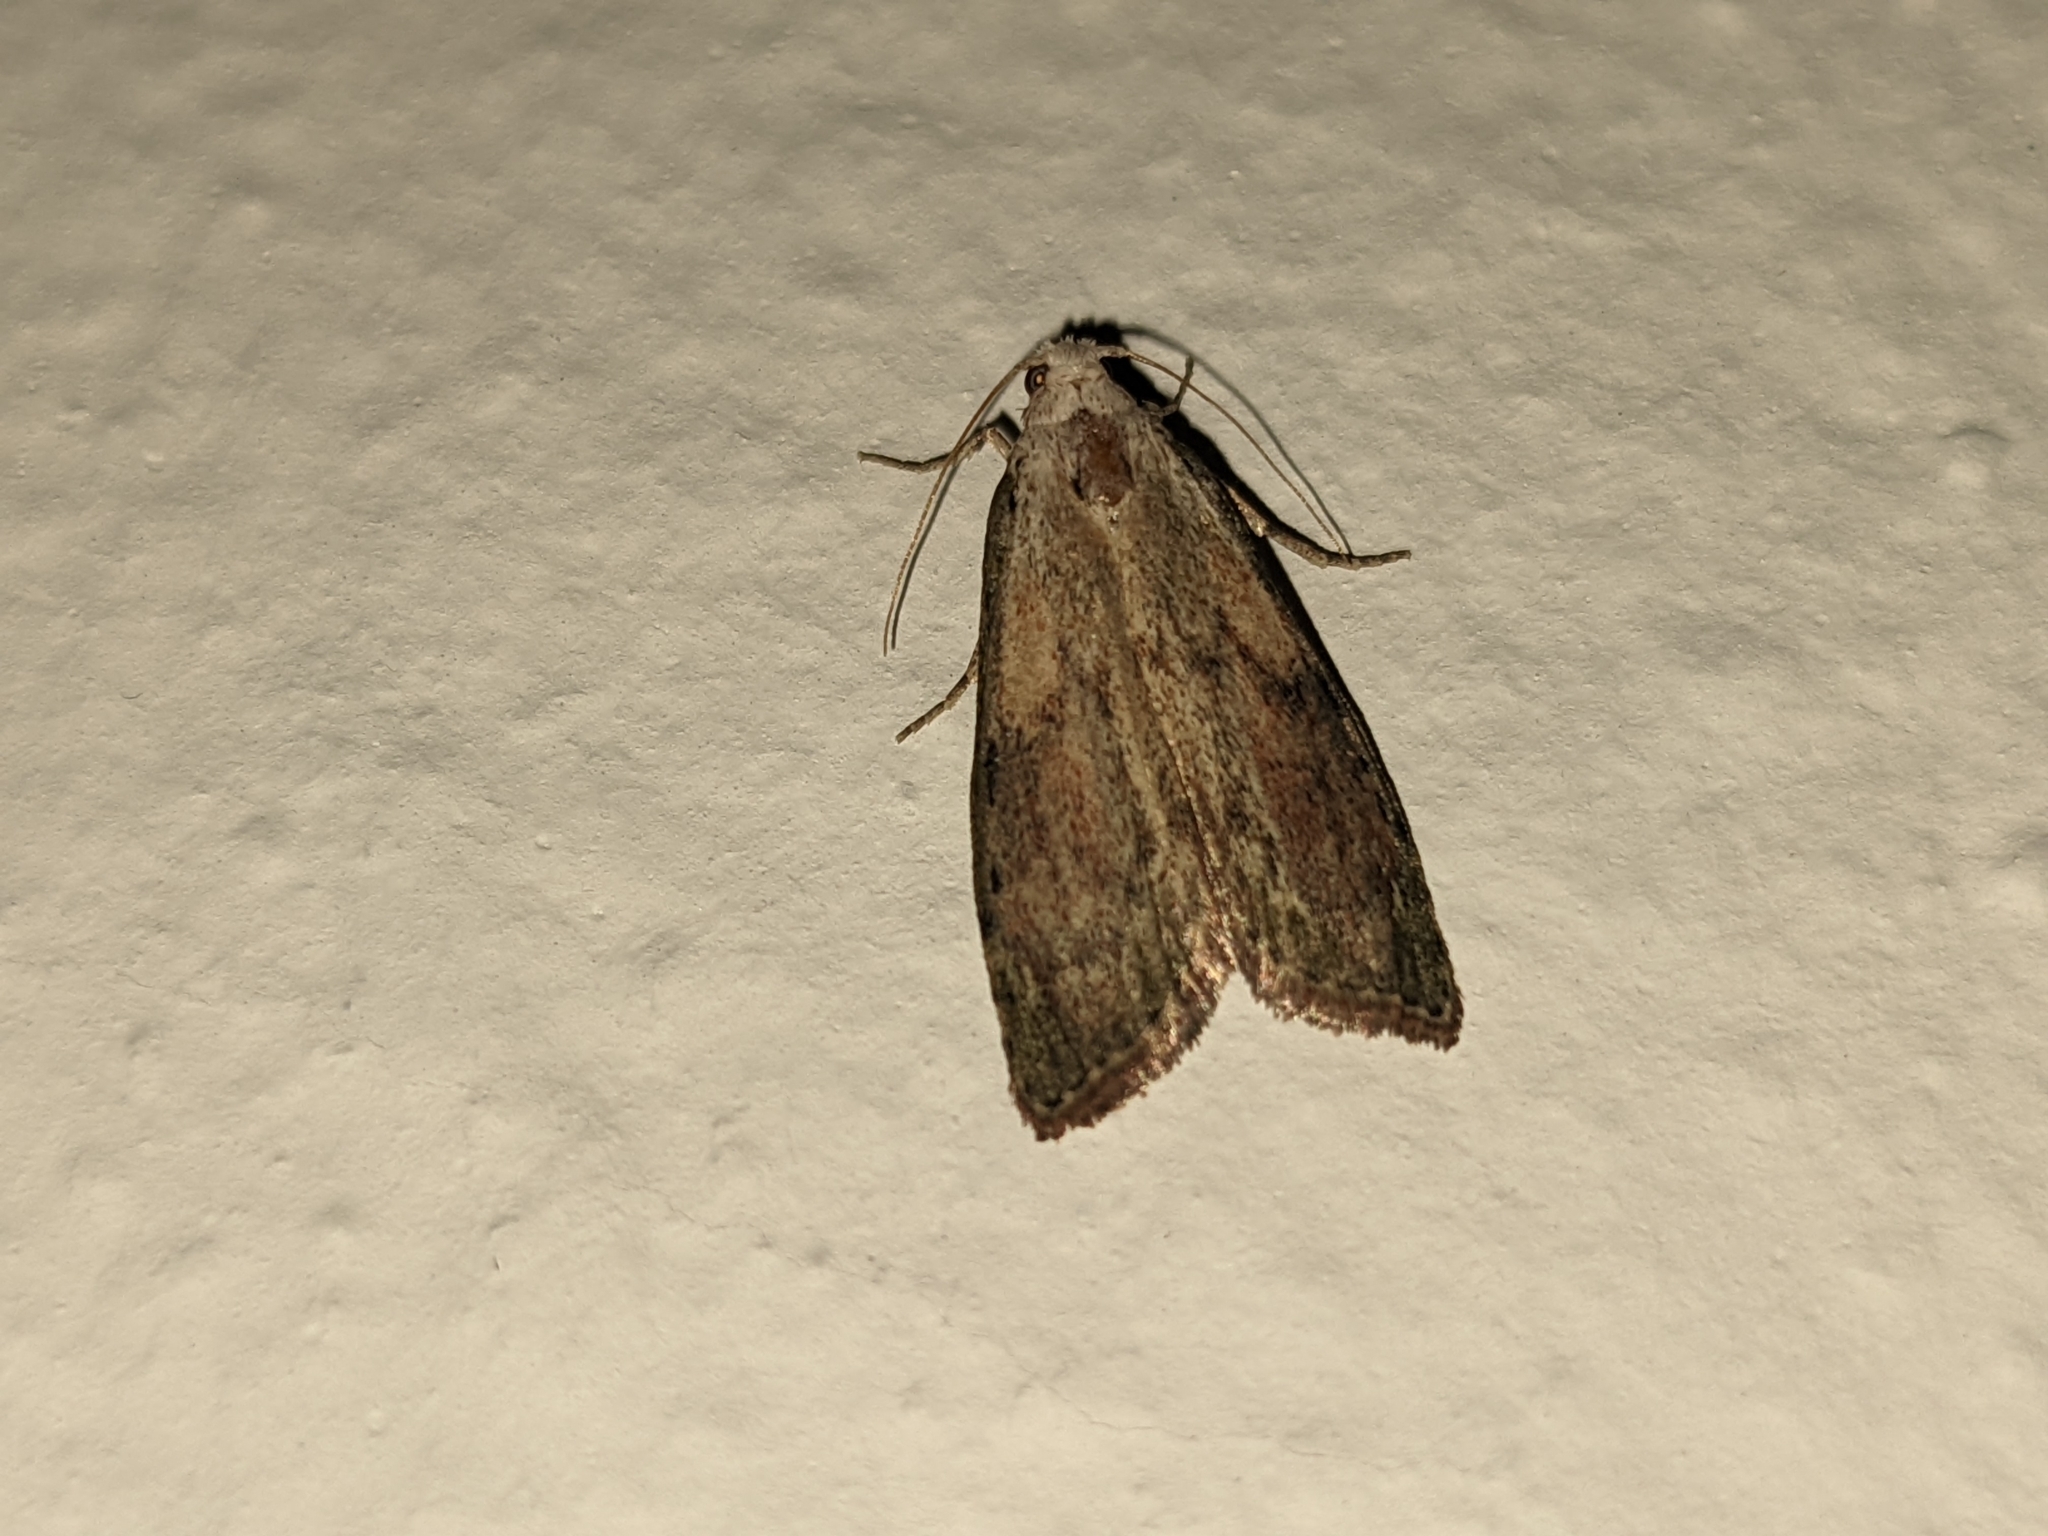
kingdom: Animalia
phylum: Arthropoda
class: Insecta
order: Lepidoptera
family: Pyralidae
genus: Aphomia
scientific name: Aphomia sociella
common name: Bee moth
